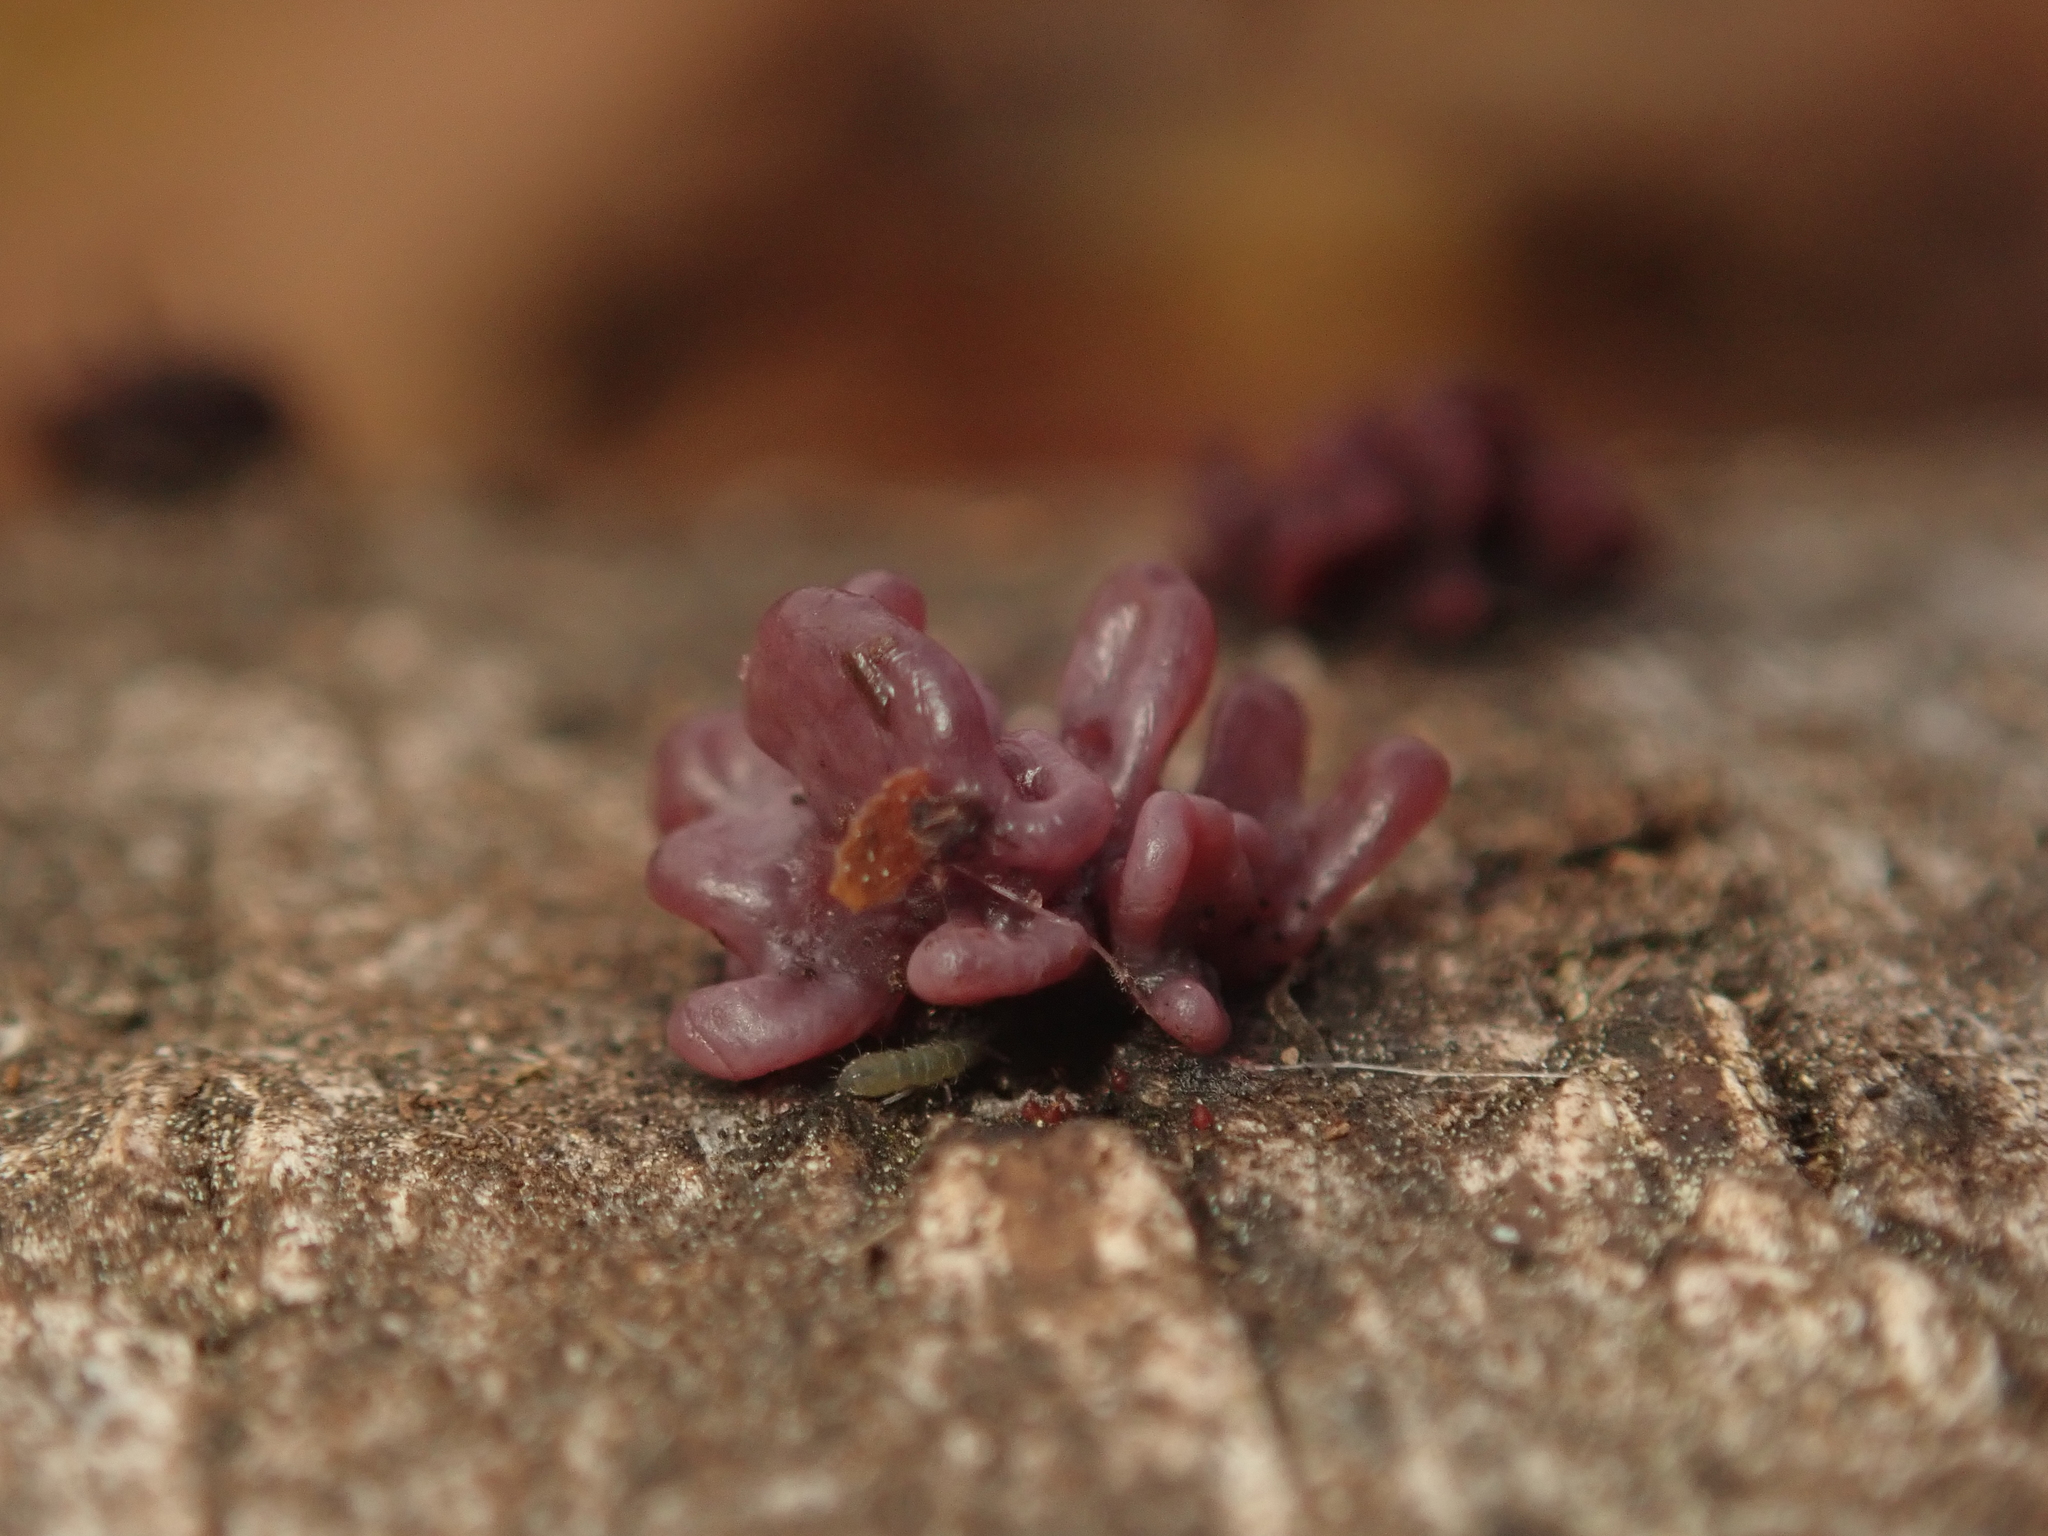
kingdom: Fungi
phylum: Ascomycota
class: Leotiomycetes
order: Helotiales
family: Gelatinodiscaceae
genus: Ascocoryne
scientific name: Ascocoryne sarcoides
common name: Purple jellydisc
